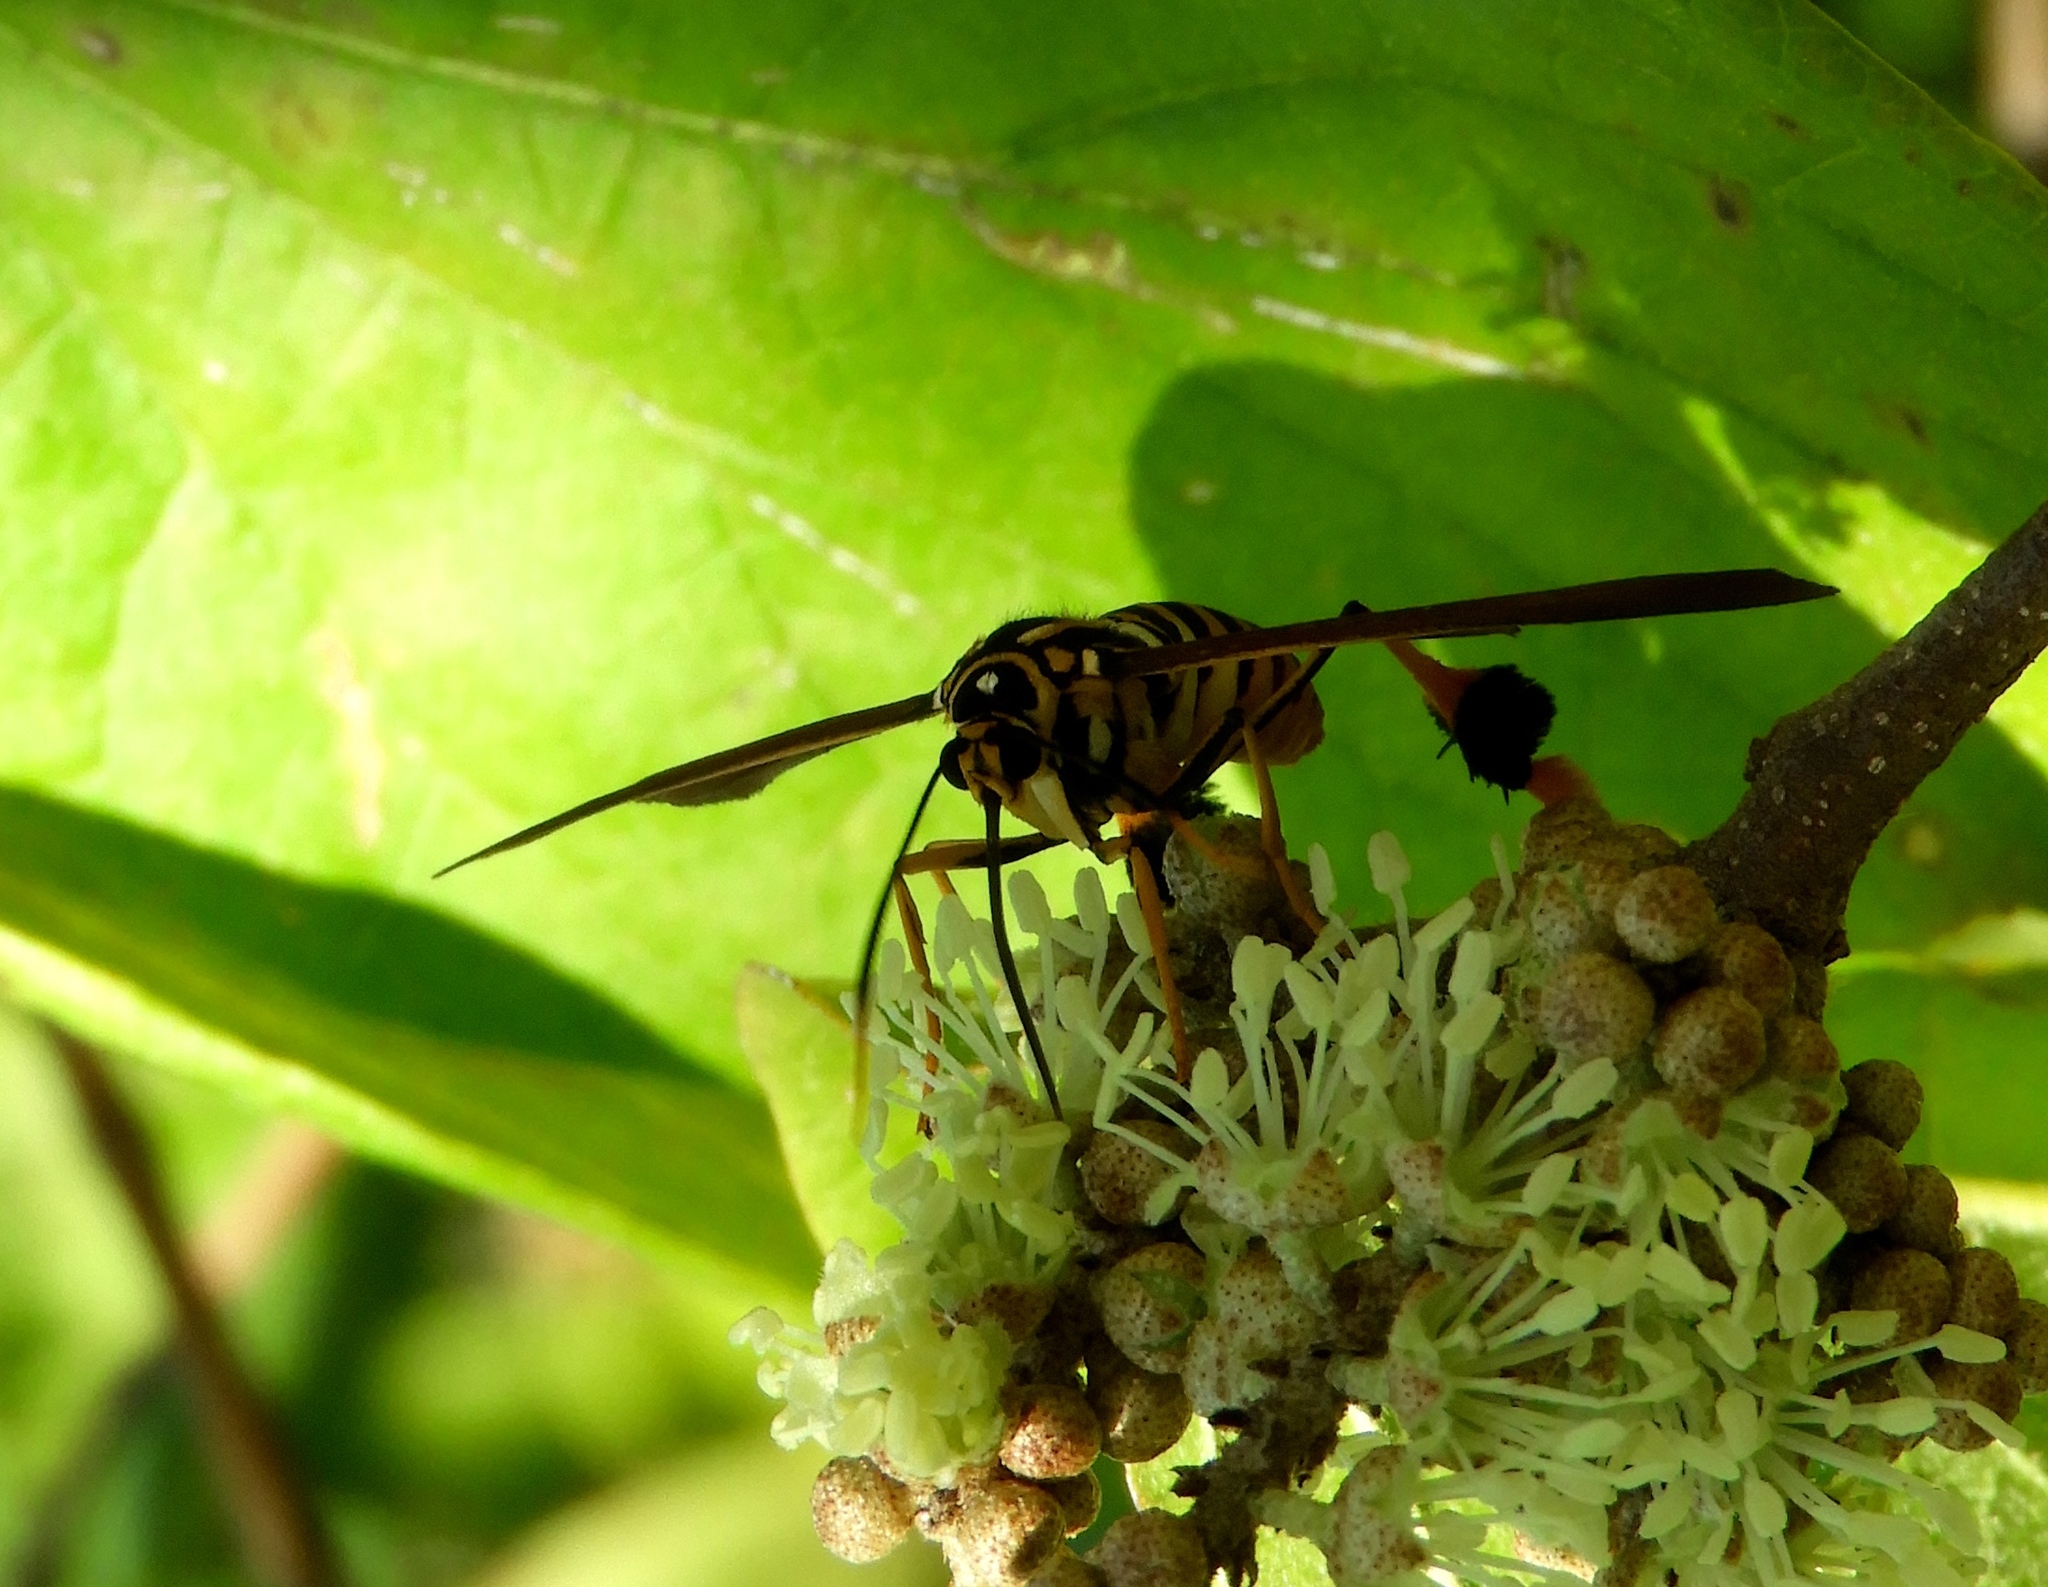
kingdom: Animalia
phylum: Arthropoda
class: Insecta
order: Lepidoptera
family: Erebidae
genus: Horama
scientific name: Horama panthalon
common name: Texas wasp moth
